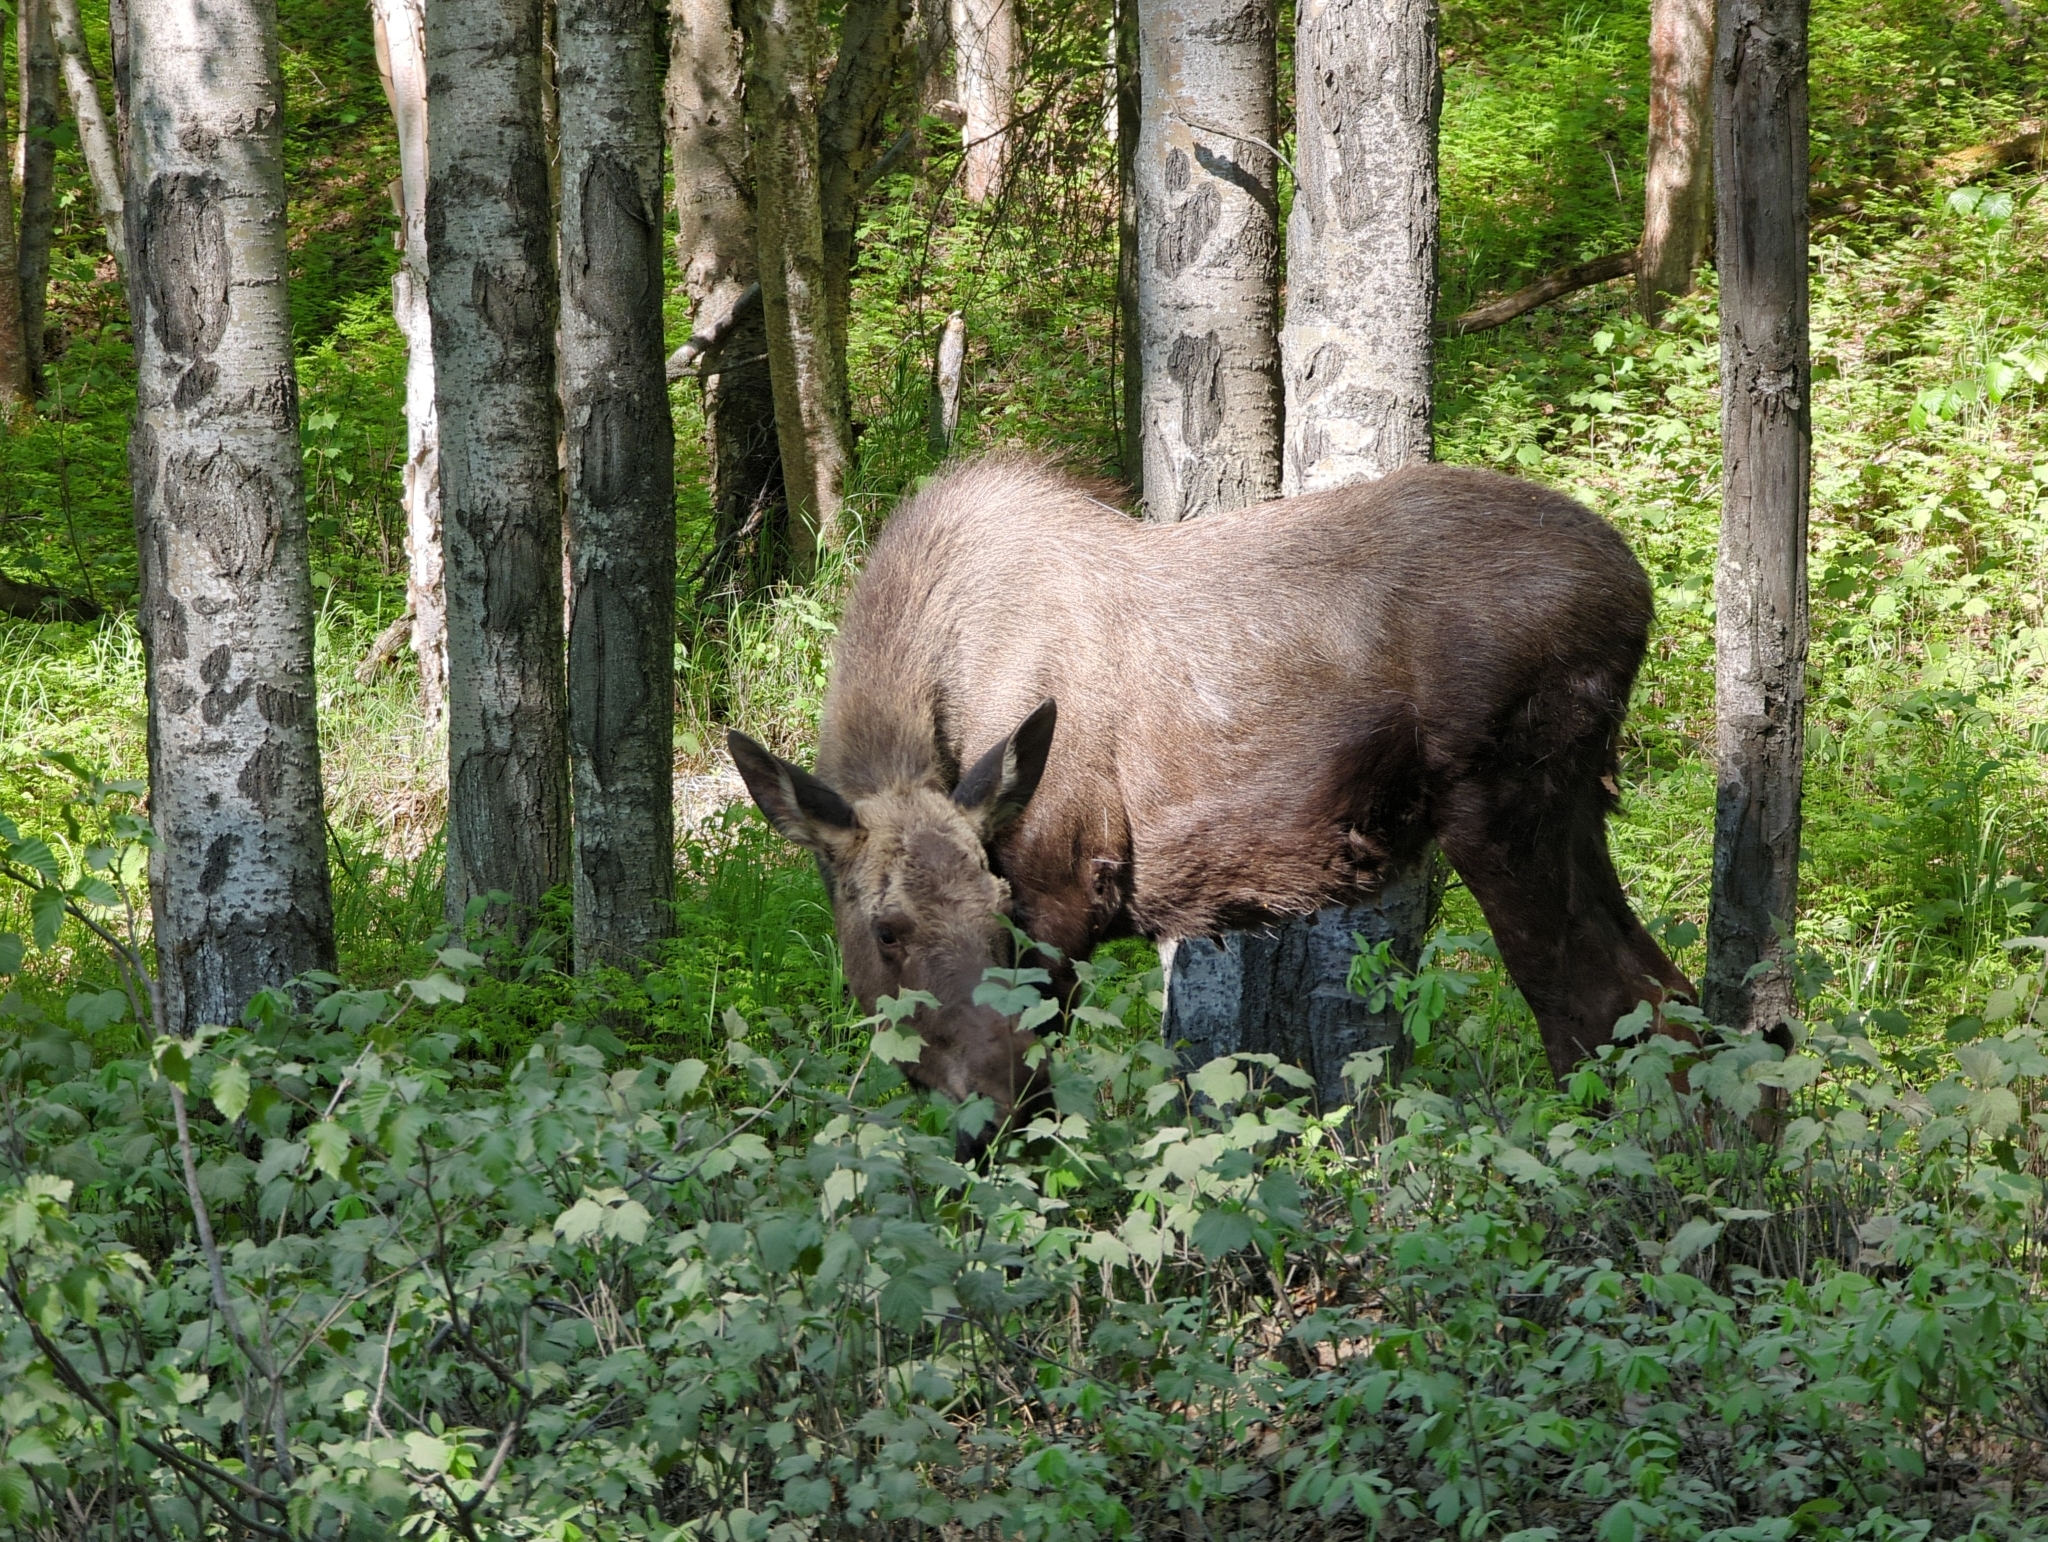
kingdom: Animalia
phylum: Chordata
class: Mammalia
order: Artiodactyla
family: Cervidae
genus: Alces
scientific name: Alces alces
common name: Moose
